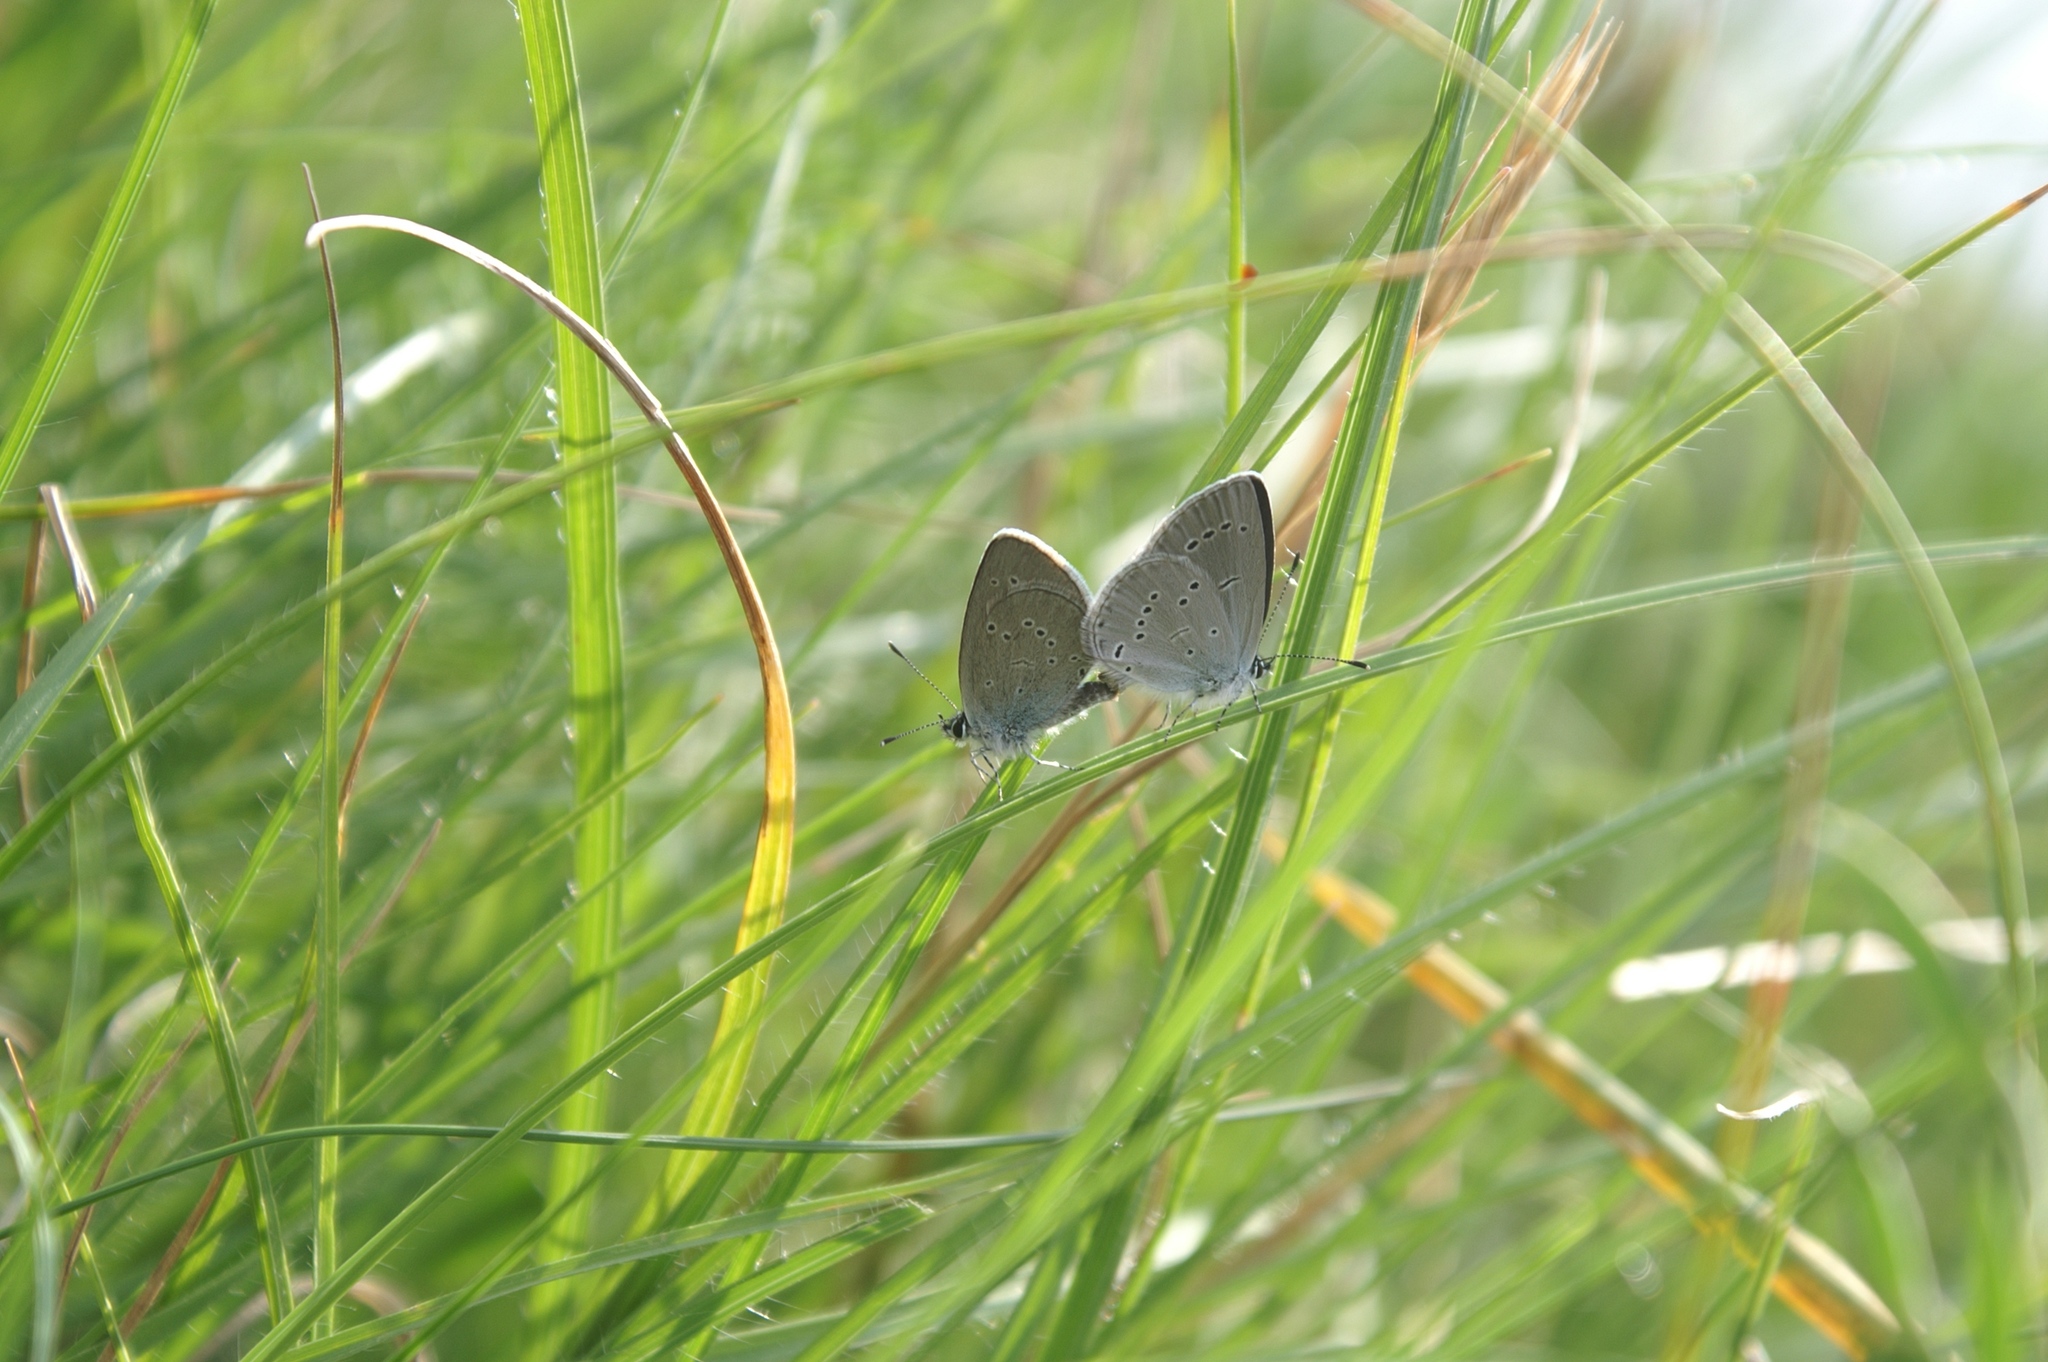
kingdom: Animalia
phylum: Arthropoda
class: Insecta
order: Lepidoptera
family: Lycaenidae
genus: Cupido
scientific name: Cupido minimus
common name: Small blue
